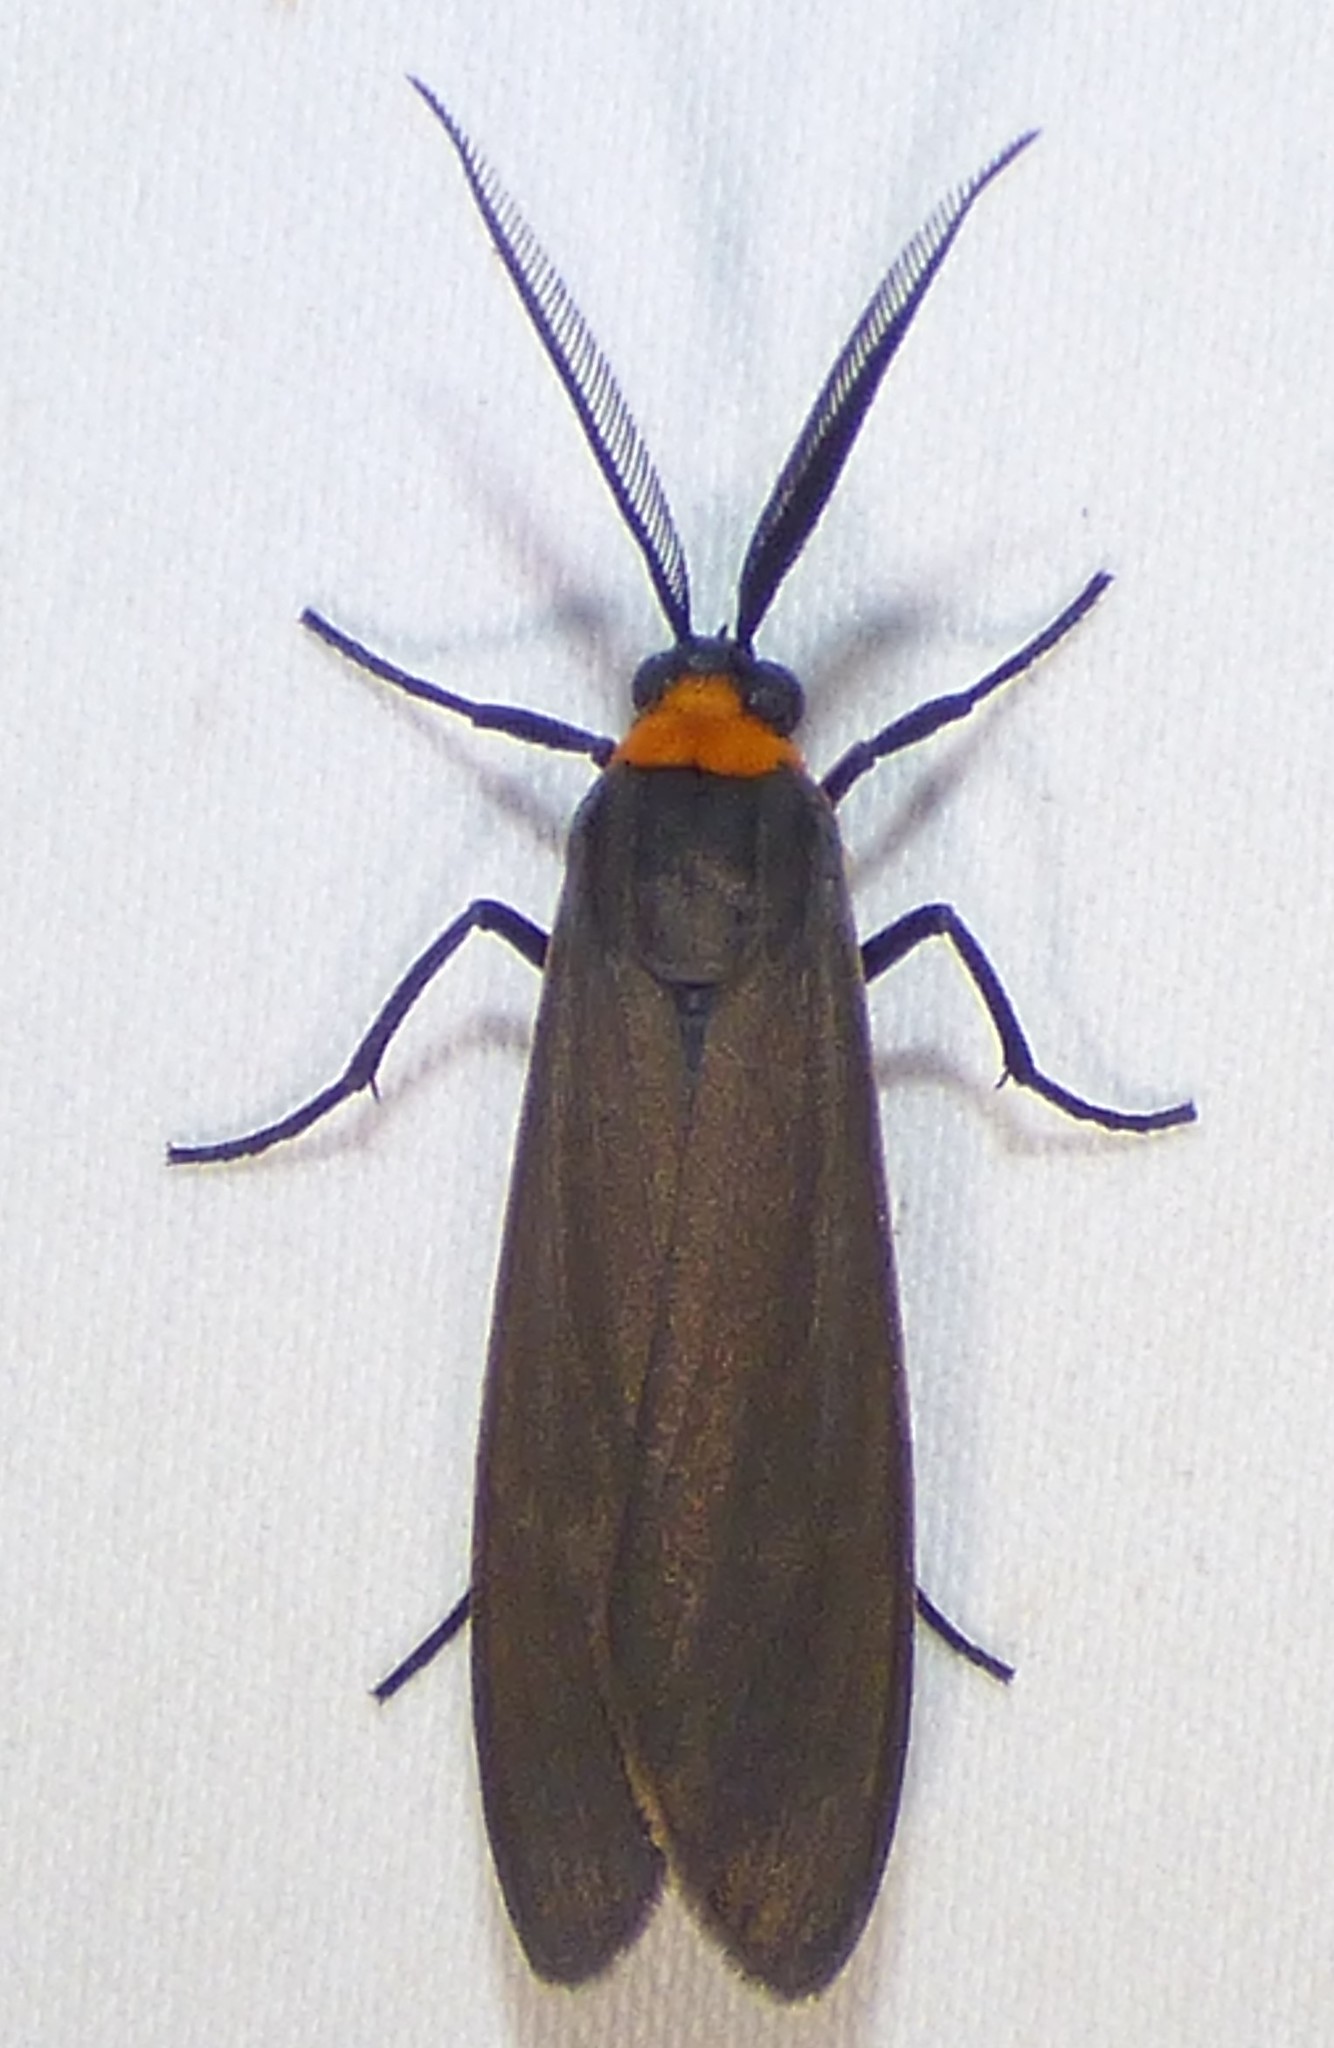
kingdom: Animalia
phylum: Arthropoda
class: Insecta
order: Lepidoptera
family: Erebidae
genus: Cisseps
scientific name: Cisseps fulvicollis
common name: Yellow-collared scape moth
